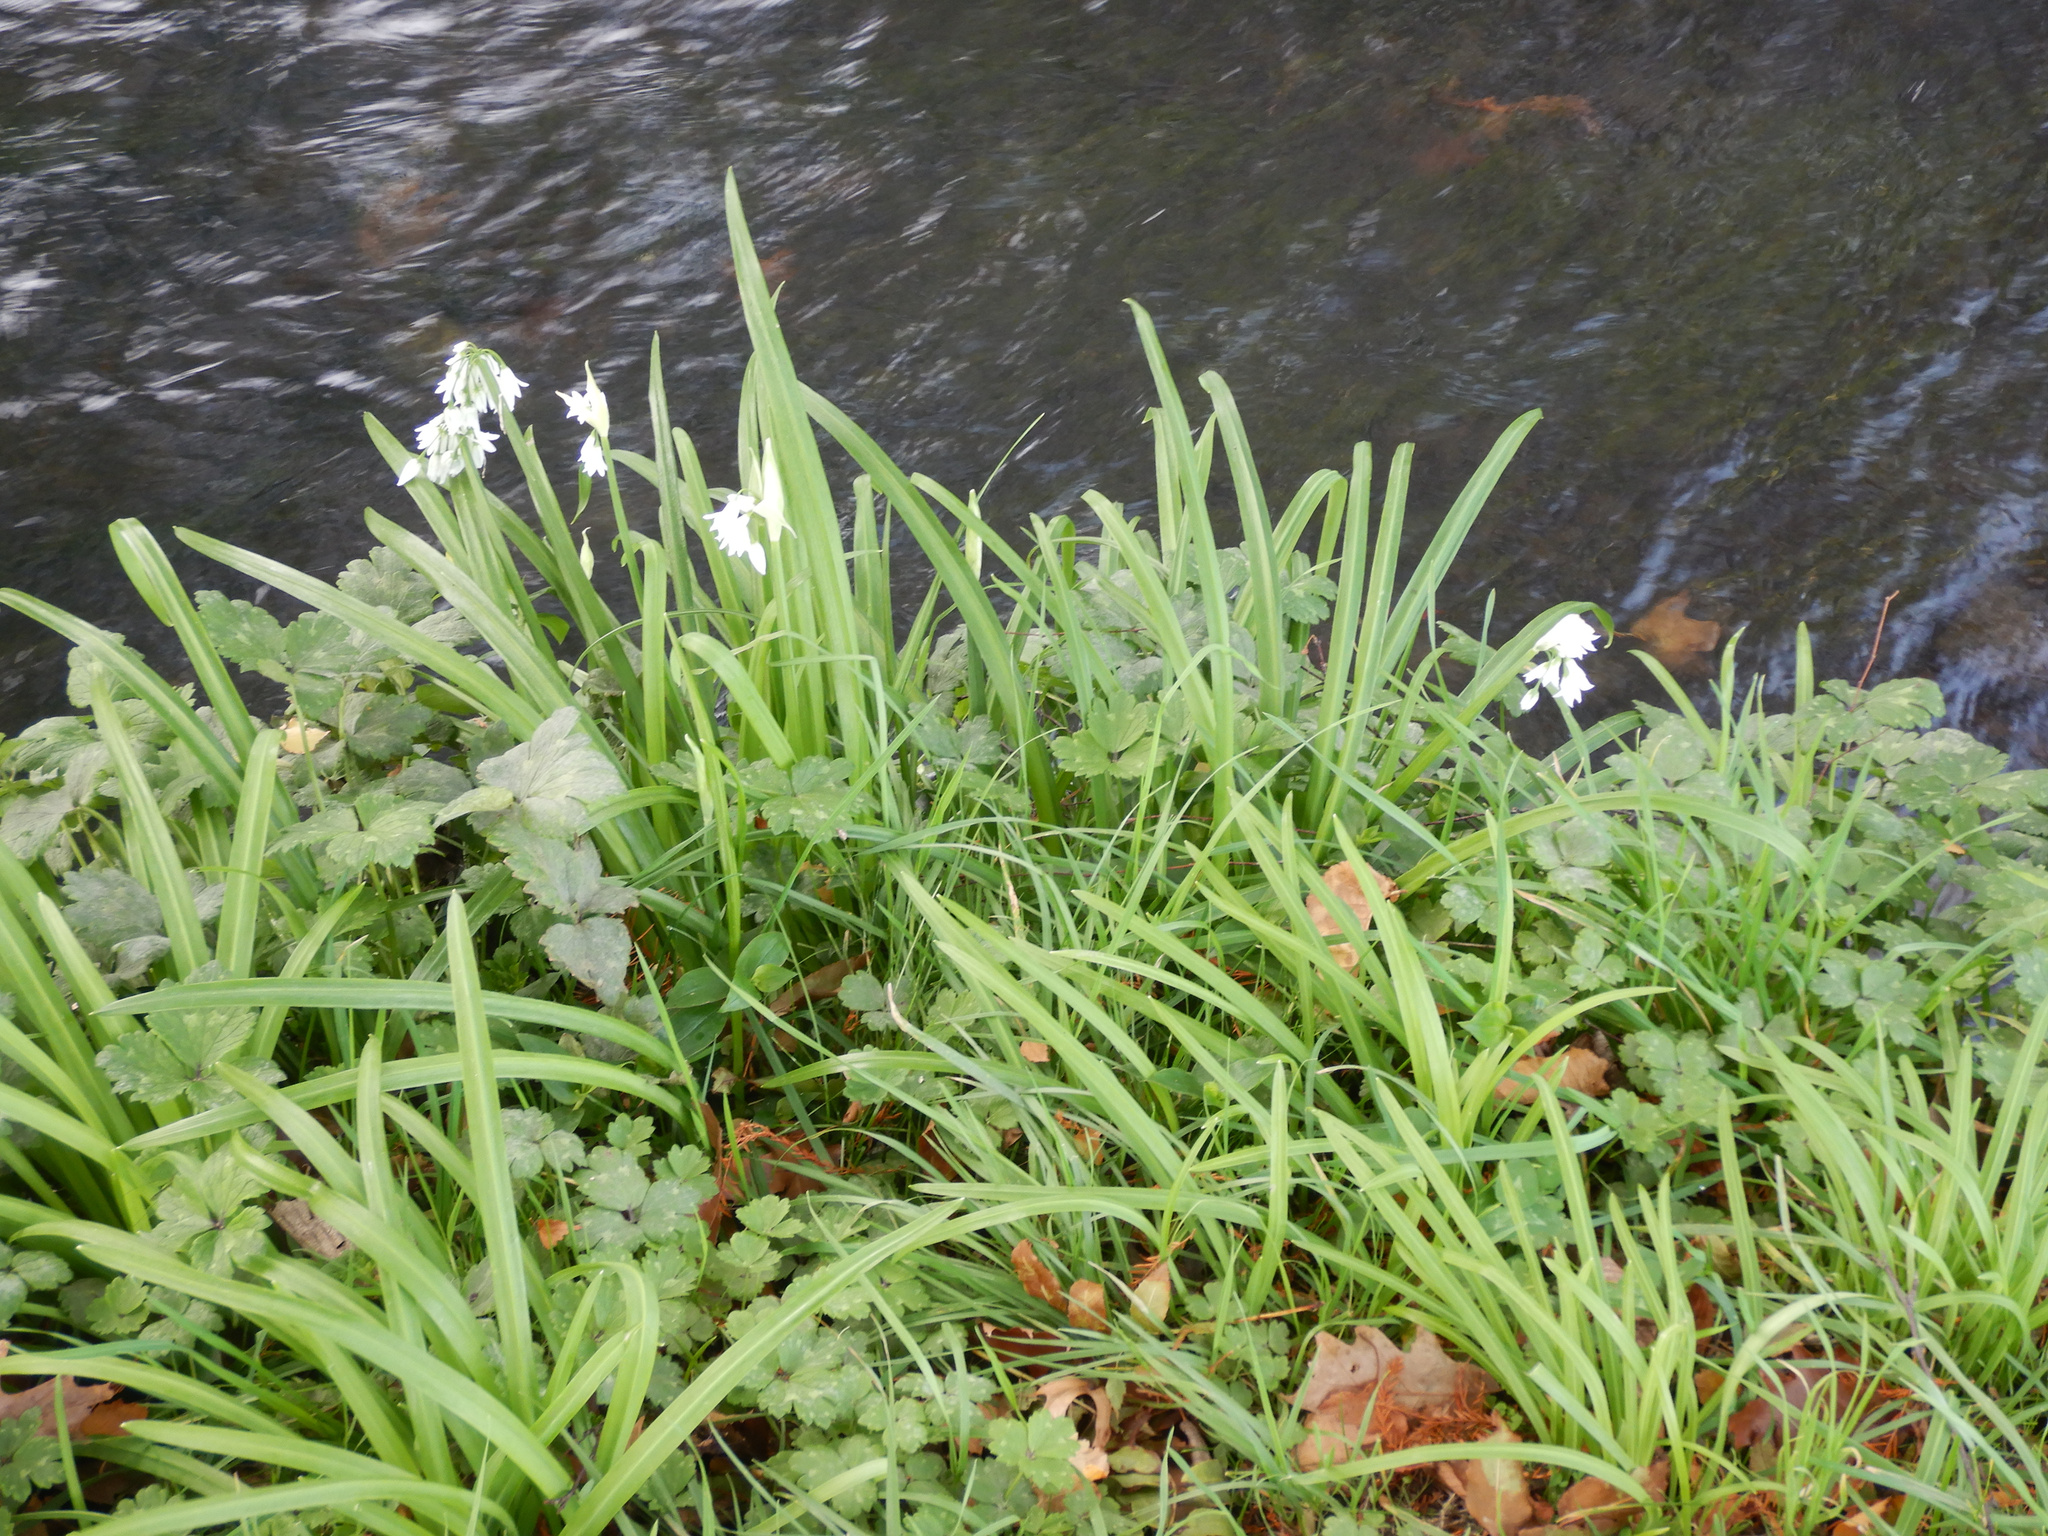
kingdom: Plantae
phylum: Tracheophyta
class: Liliopsida
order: Asparagales
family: Amaryllidaceae
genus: Allium
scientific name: Allium triquetrum
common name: Three-cornered garlic
